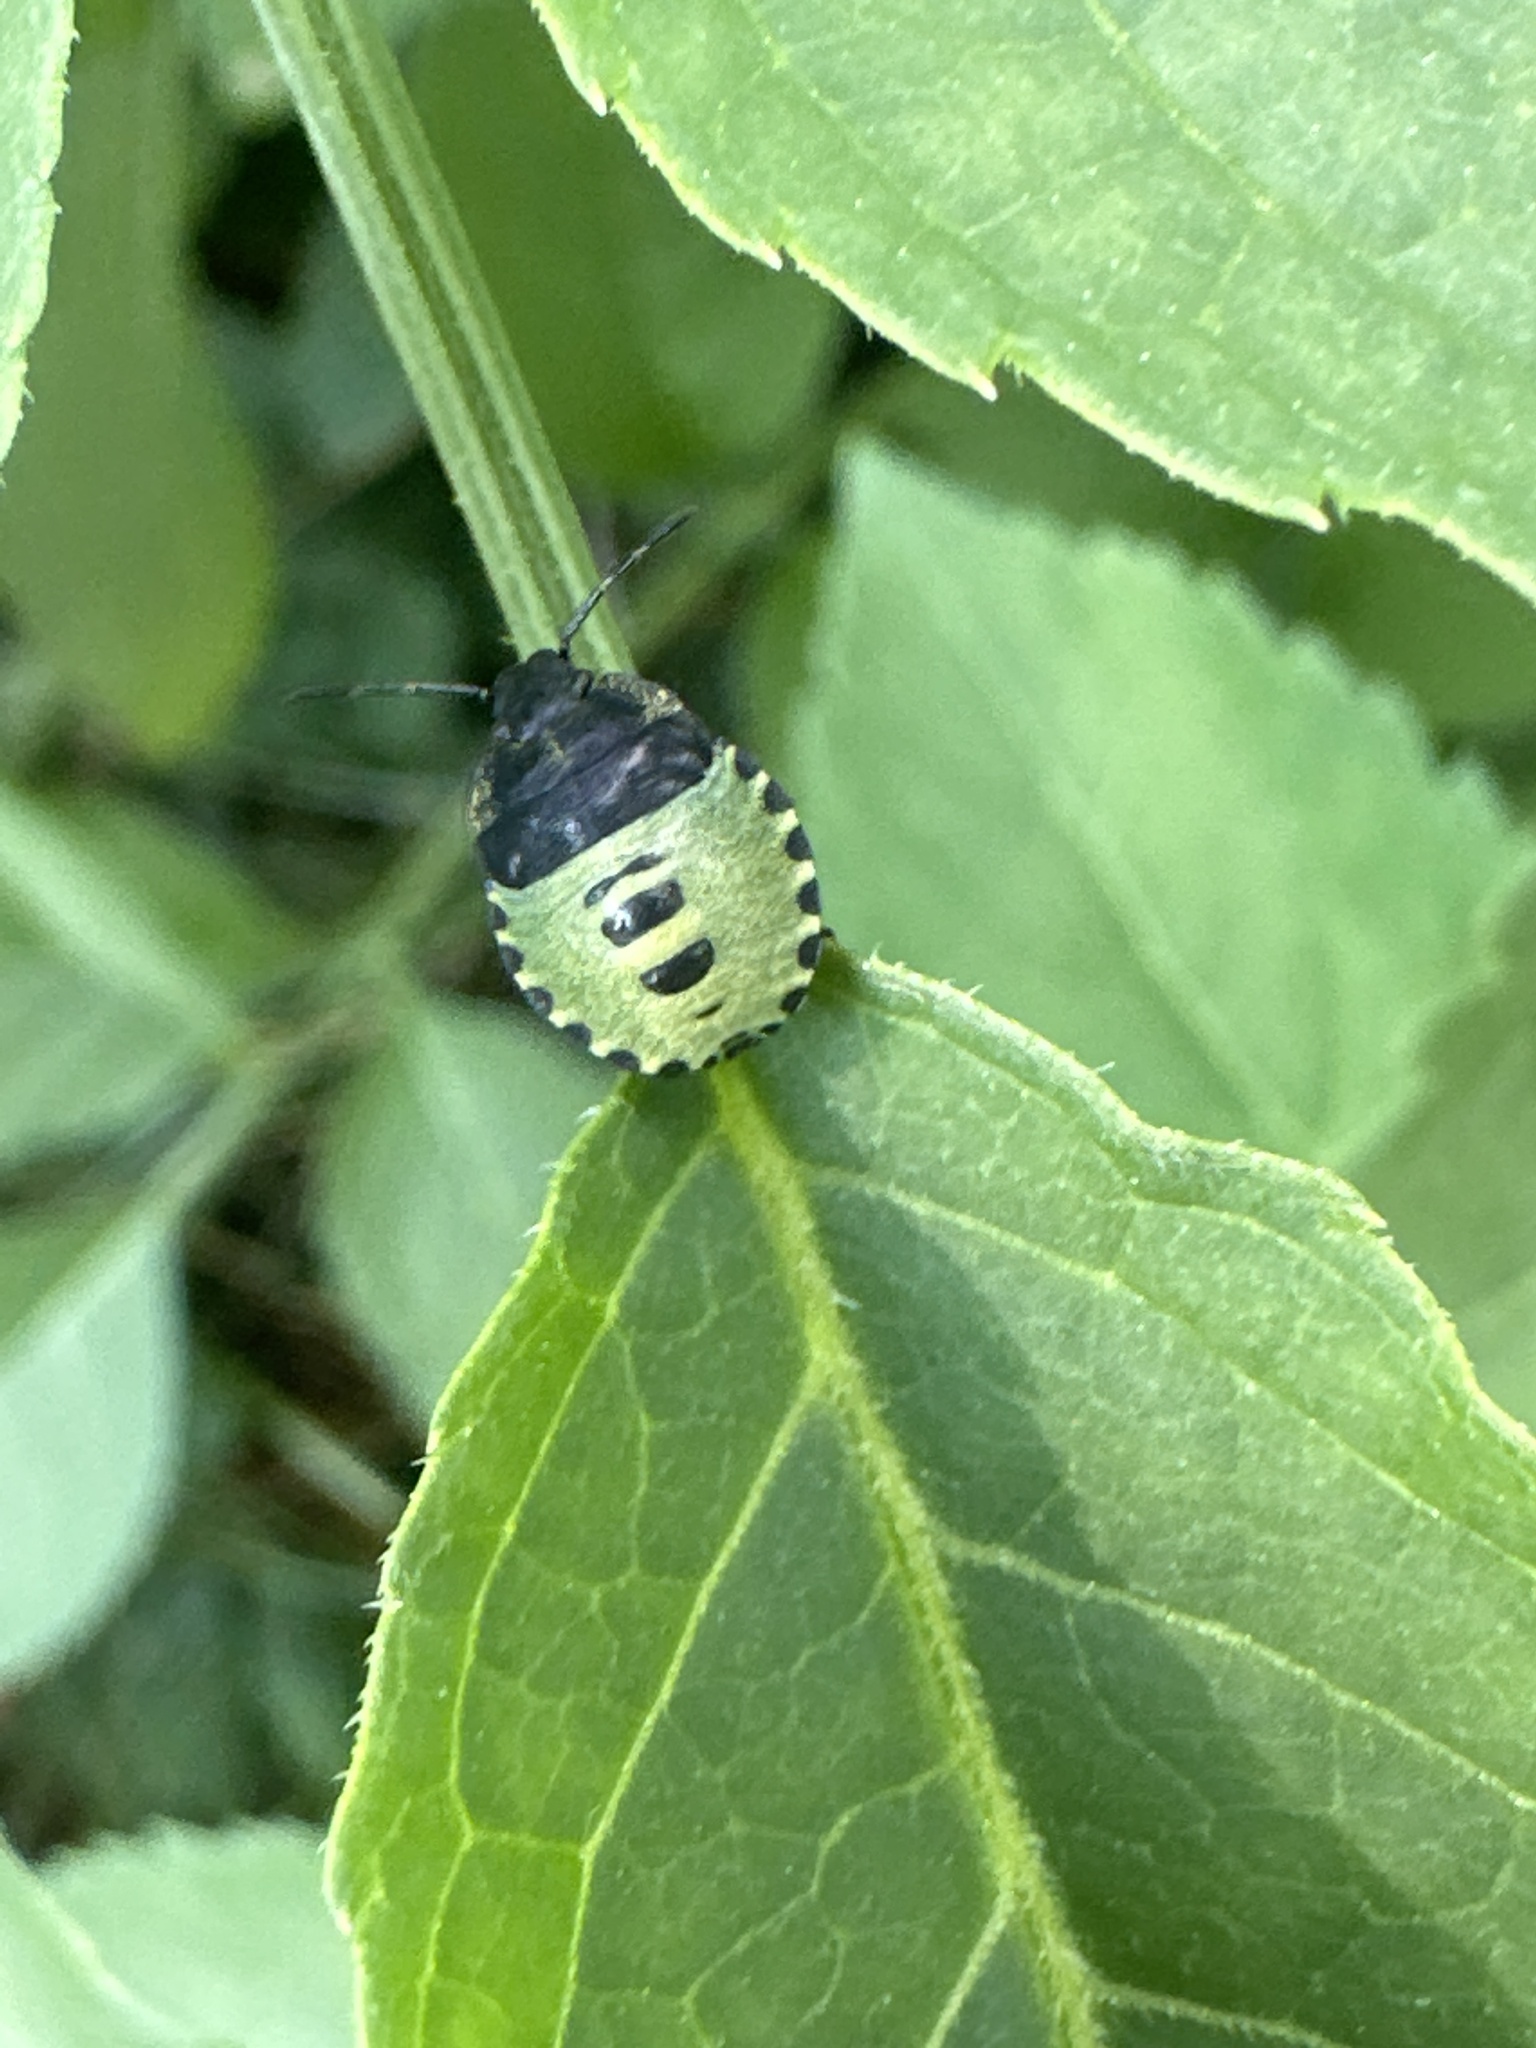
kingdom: Animalia
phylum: Arthropoda
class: Insecta
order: Hemiptera
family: Pentatomidae
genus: Palomena
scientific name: Palomena prasina
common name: Green shieldbug
